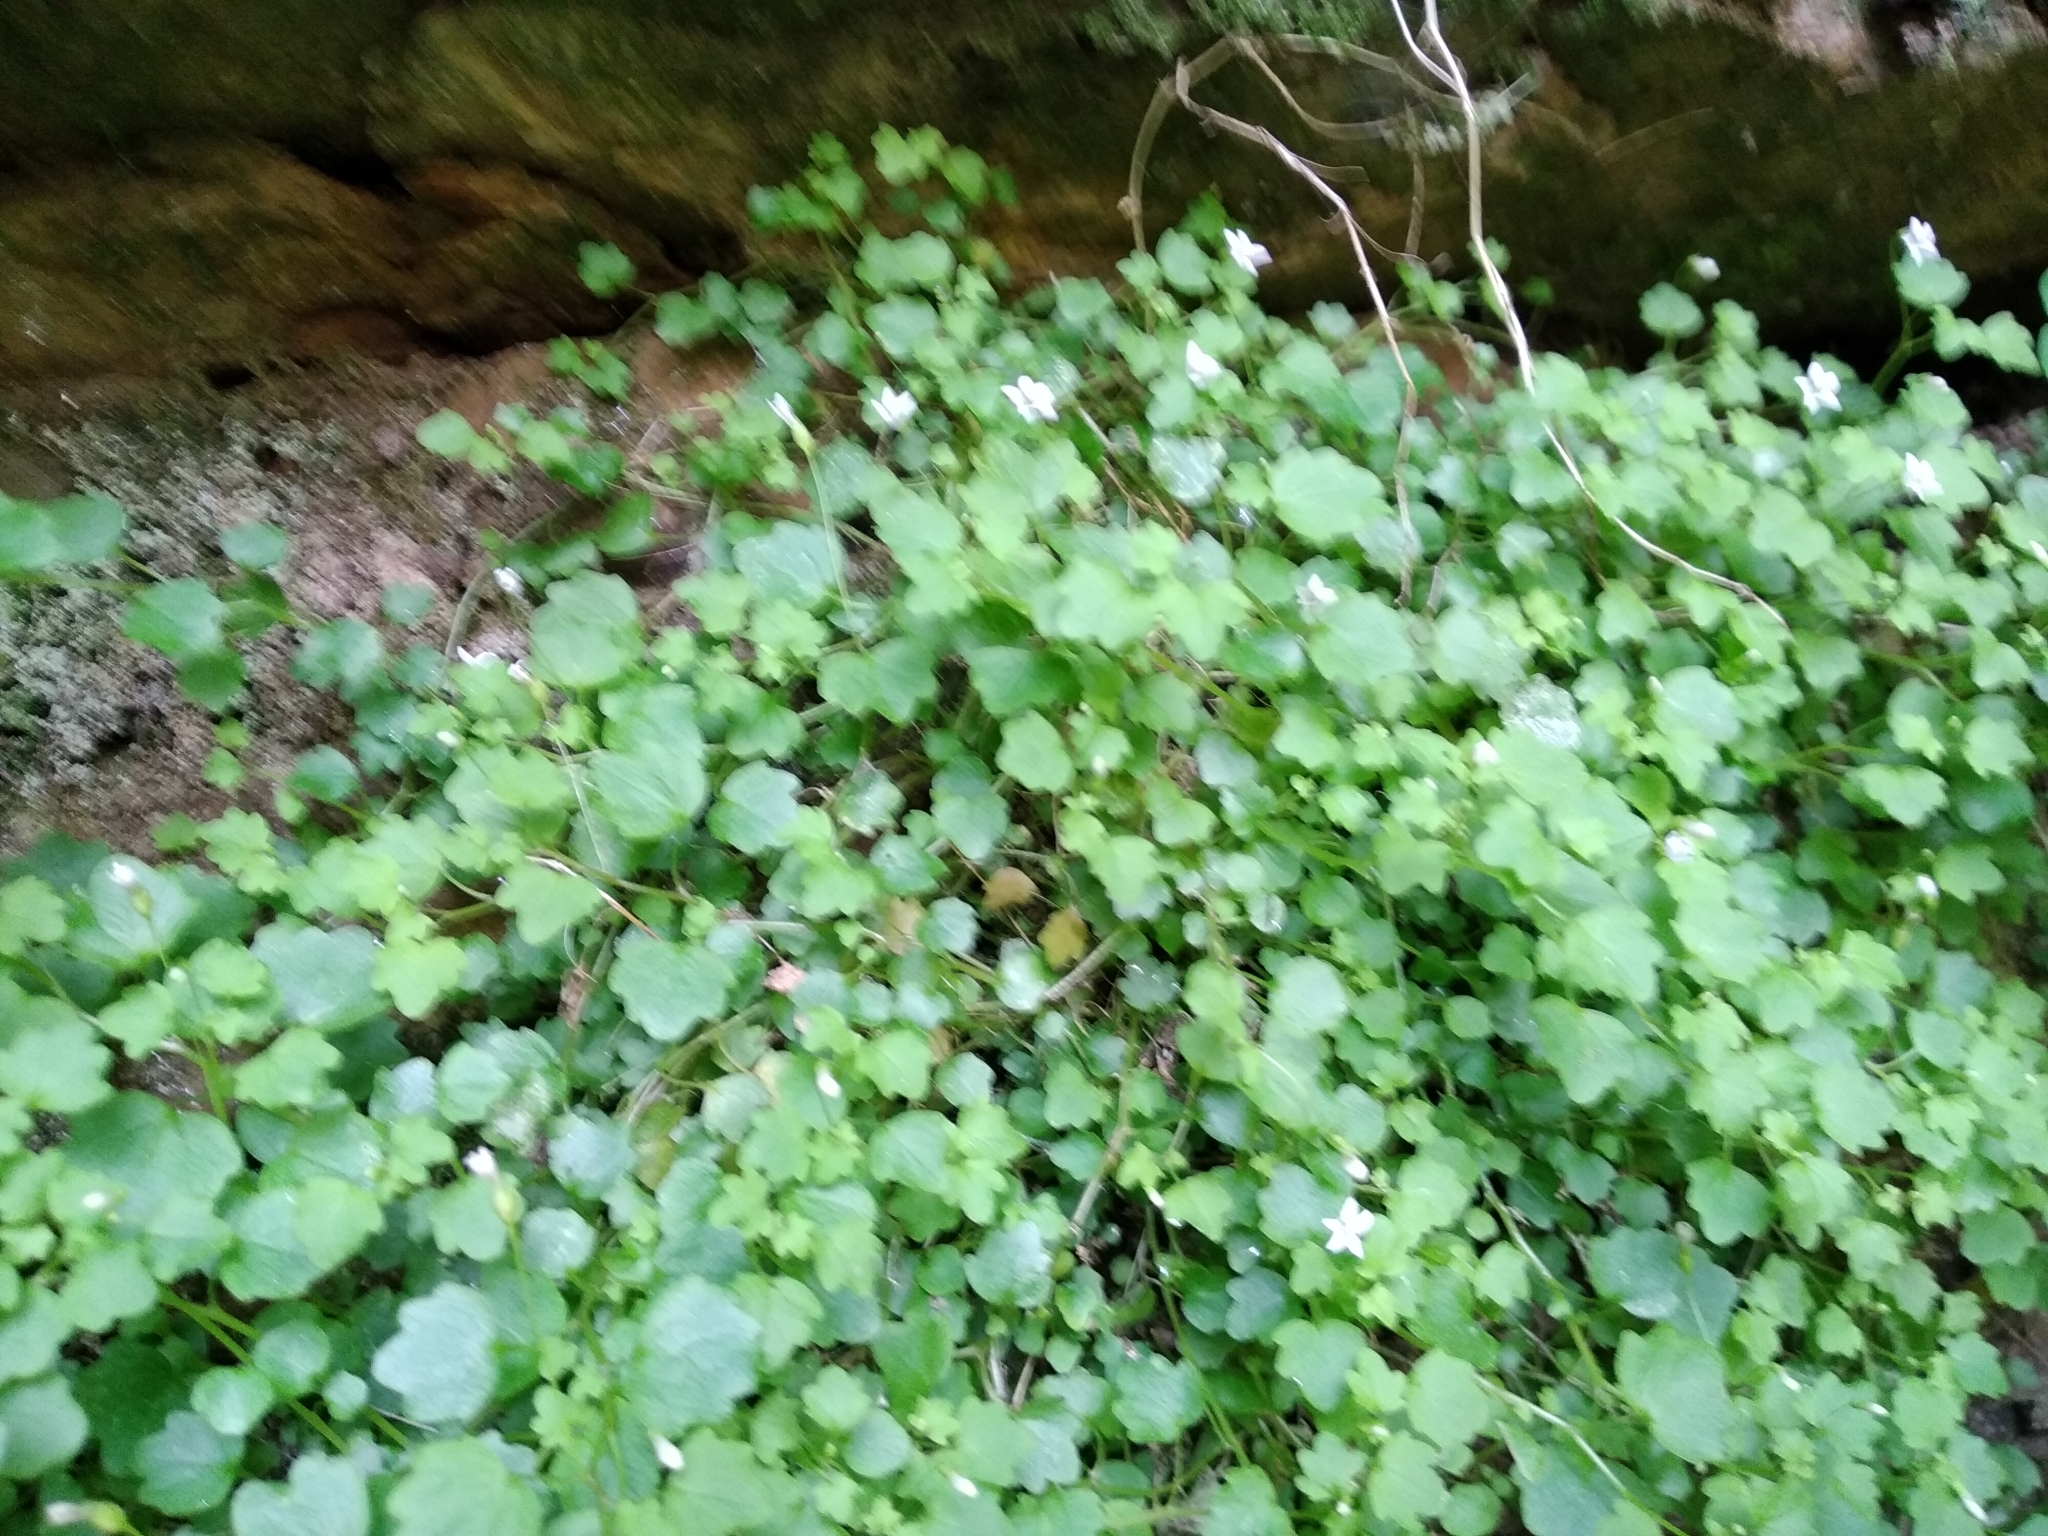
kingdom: Plantae
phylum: Tracheophyta
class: Magnoliopsida
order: Asterales
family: Campanulaceae
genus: Wimmerella
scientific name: Wimmerella pygmaea
